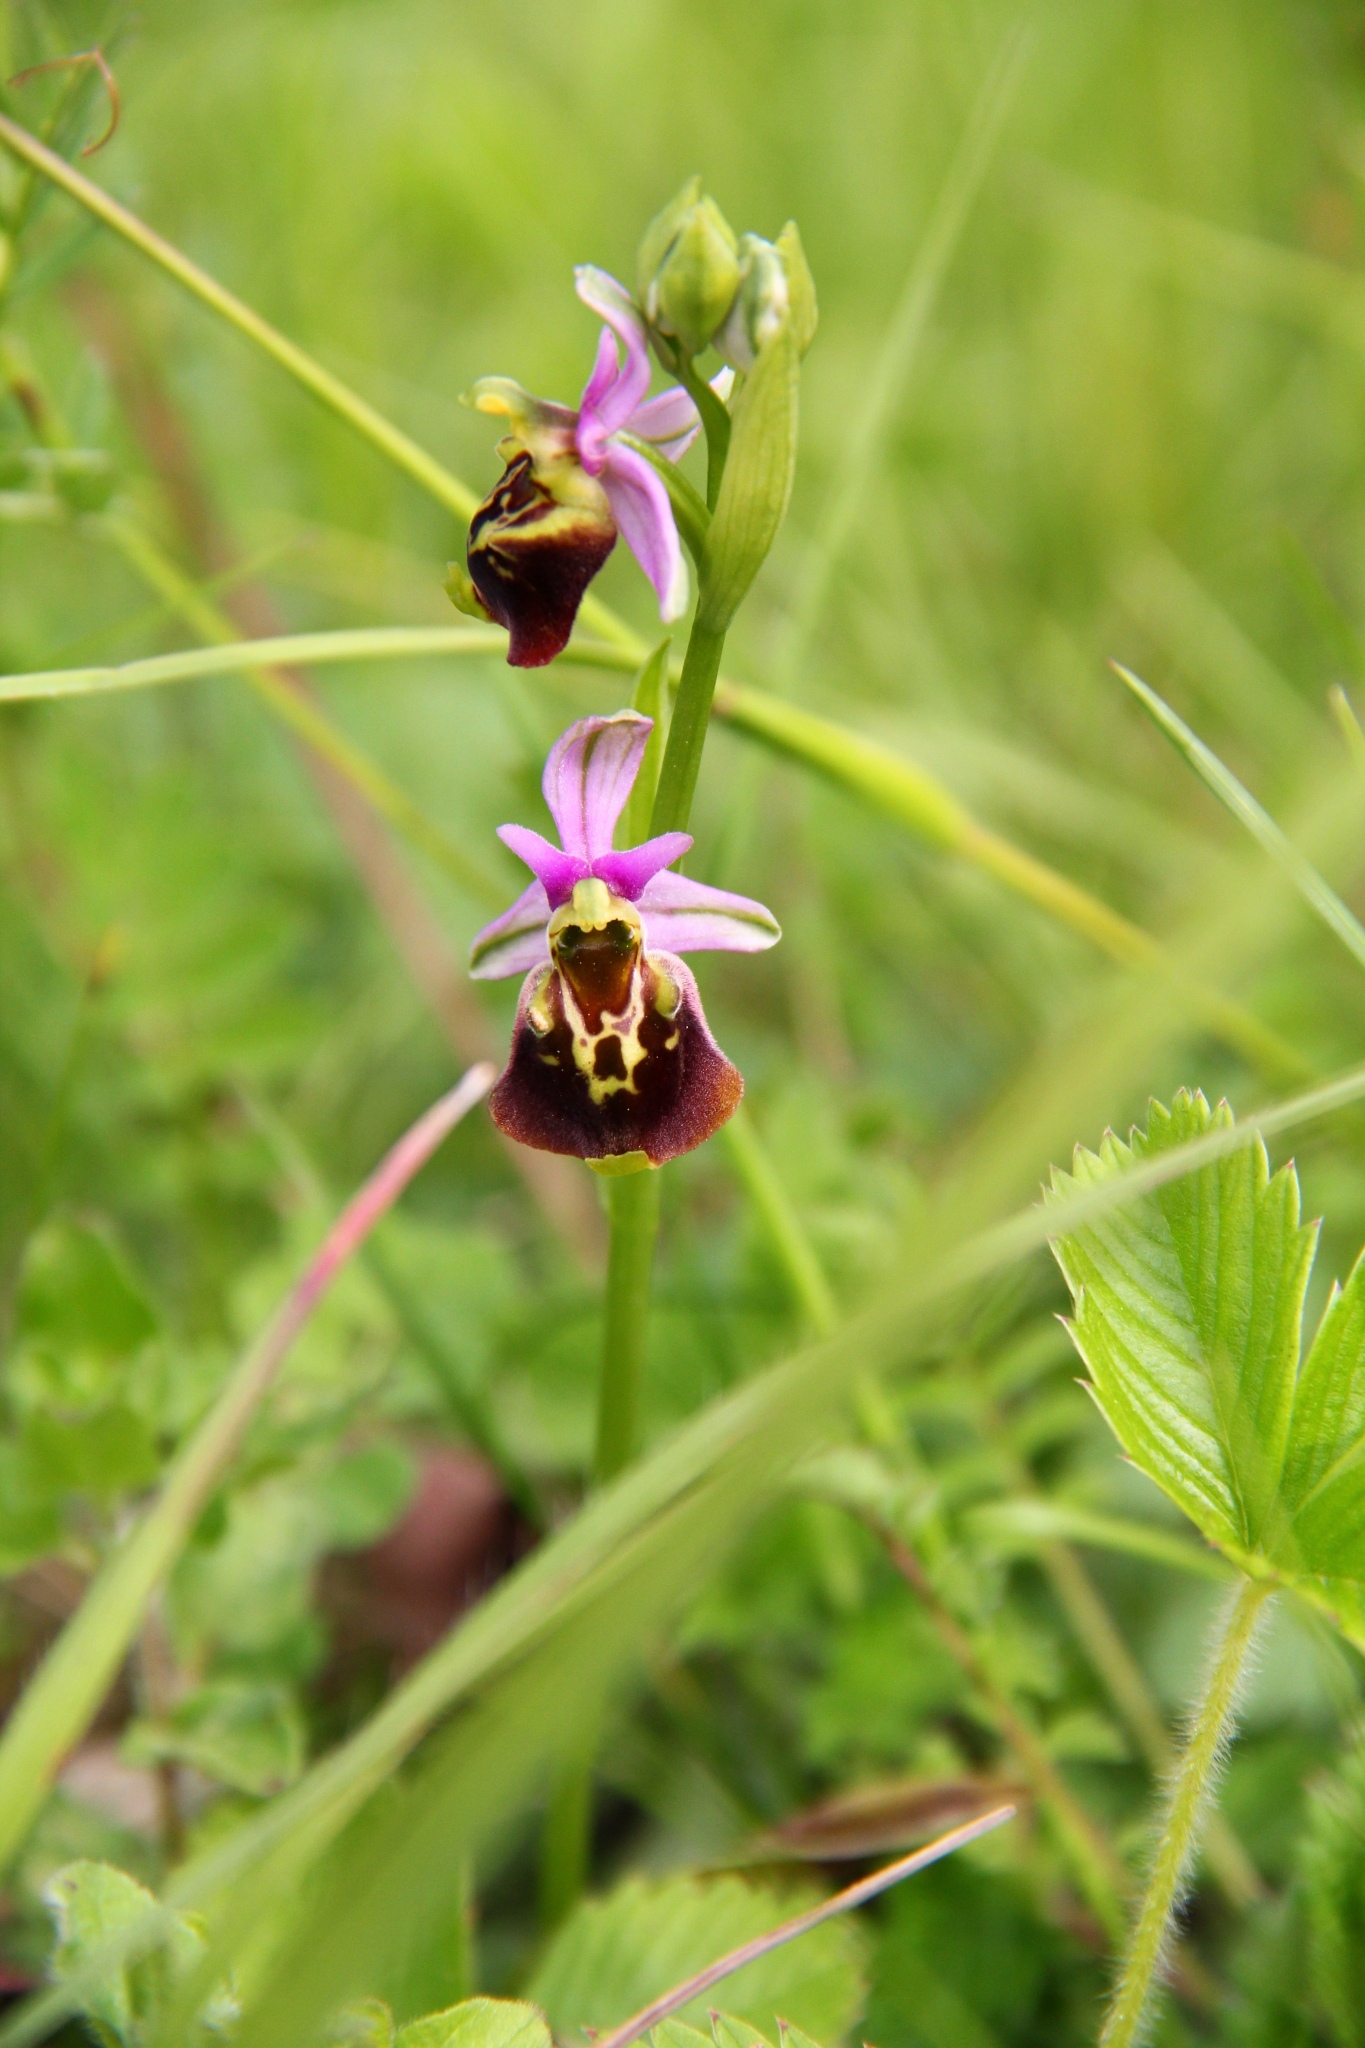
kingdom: Plantae
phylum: Tracheophyta
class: Liliopsida
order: Asparagales
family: Orchidaceae
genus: Ophrys
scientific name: Ophrys holosericea
